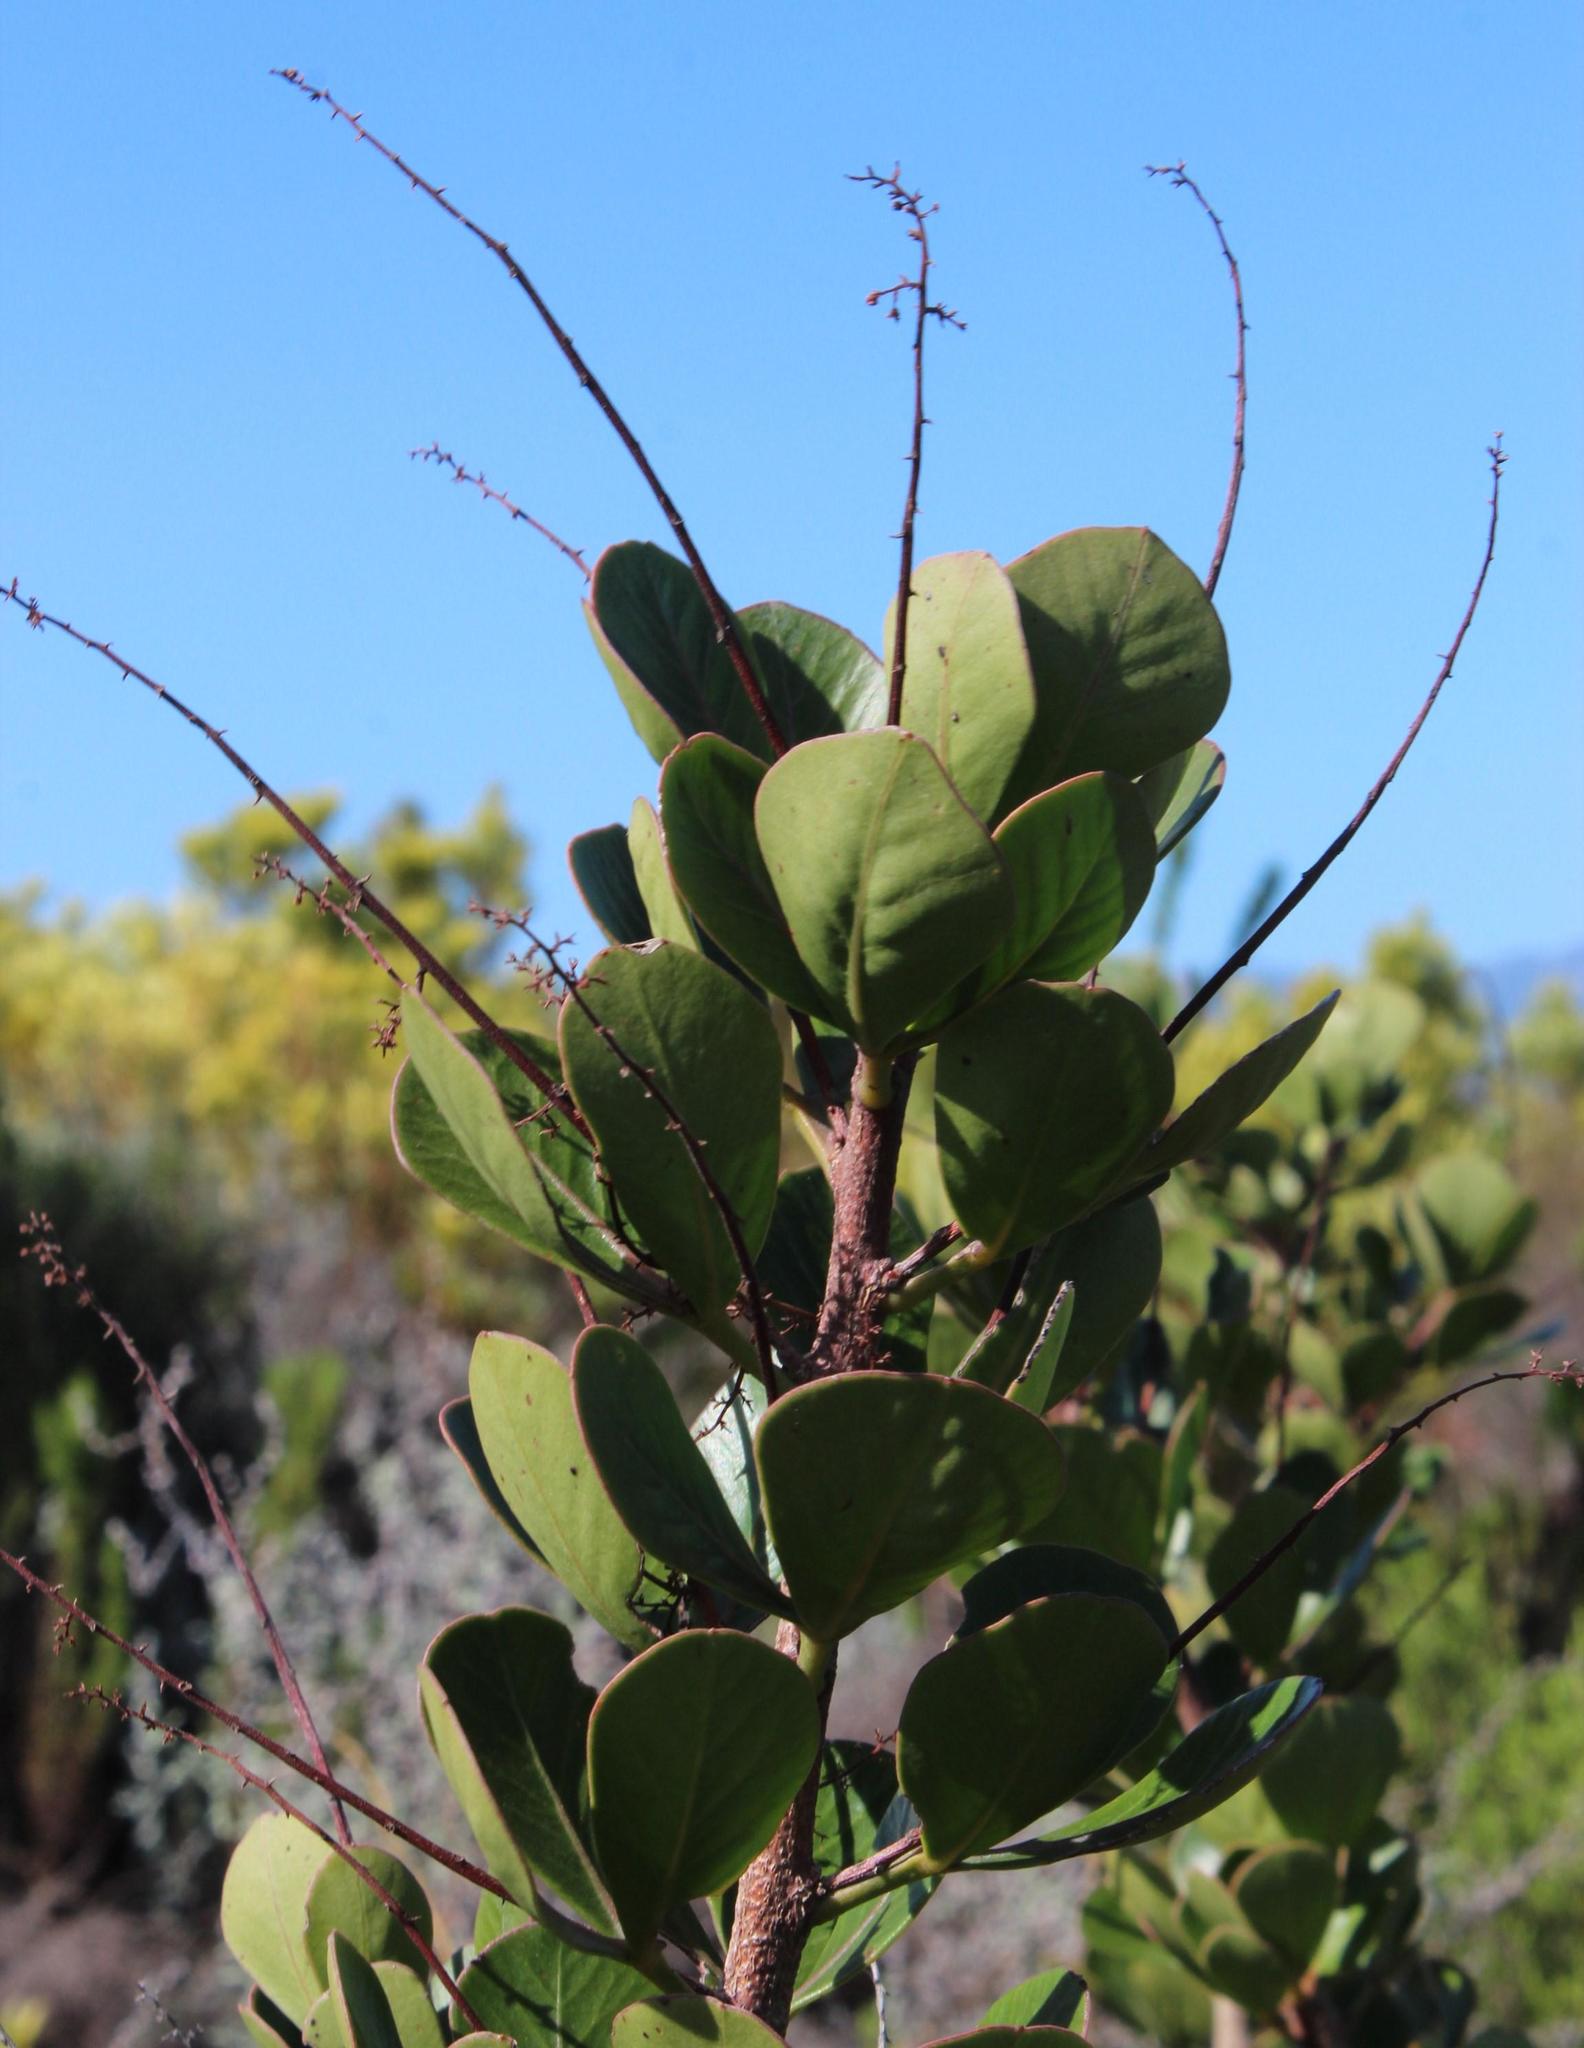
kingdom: Plantae
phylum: Tracheophyta
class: Magnoliopsida
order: Sapindales
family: Anacardiaceae
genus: Searsia
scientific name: Searsia scytophylla
